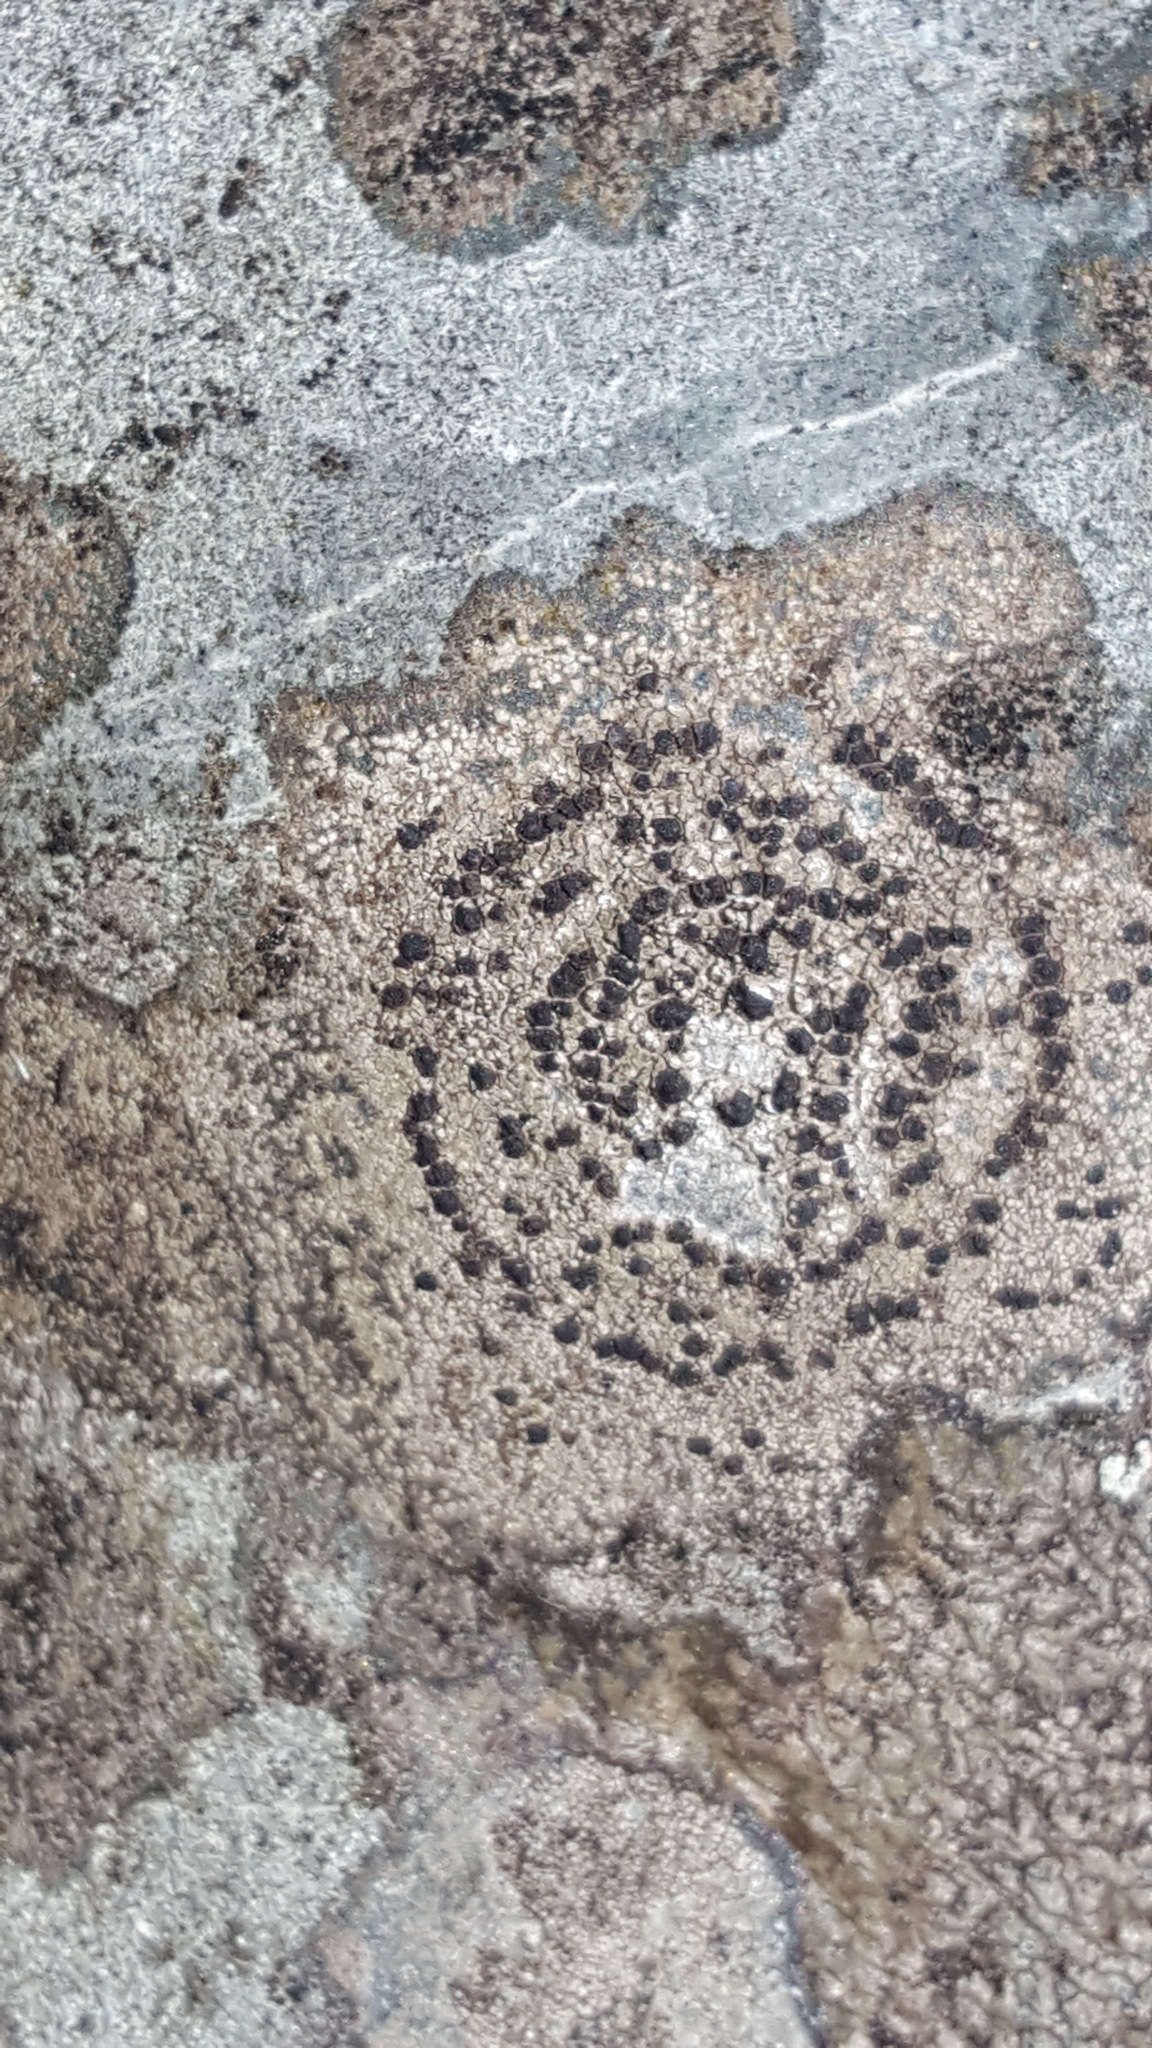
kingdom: Fungi
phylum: Ascomycota
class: Lecanoromycetes
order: Lecideales
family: Lecideaceae
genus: Porpidia
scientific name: Porpidia crustulata
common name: Concentric boulder lichen
